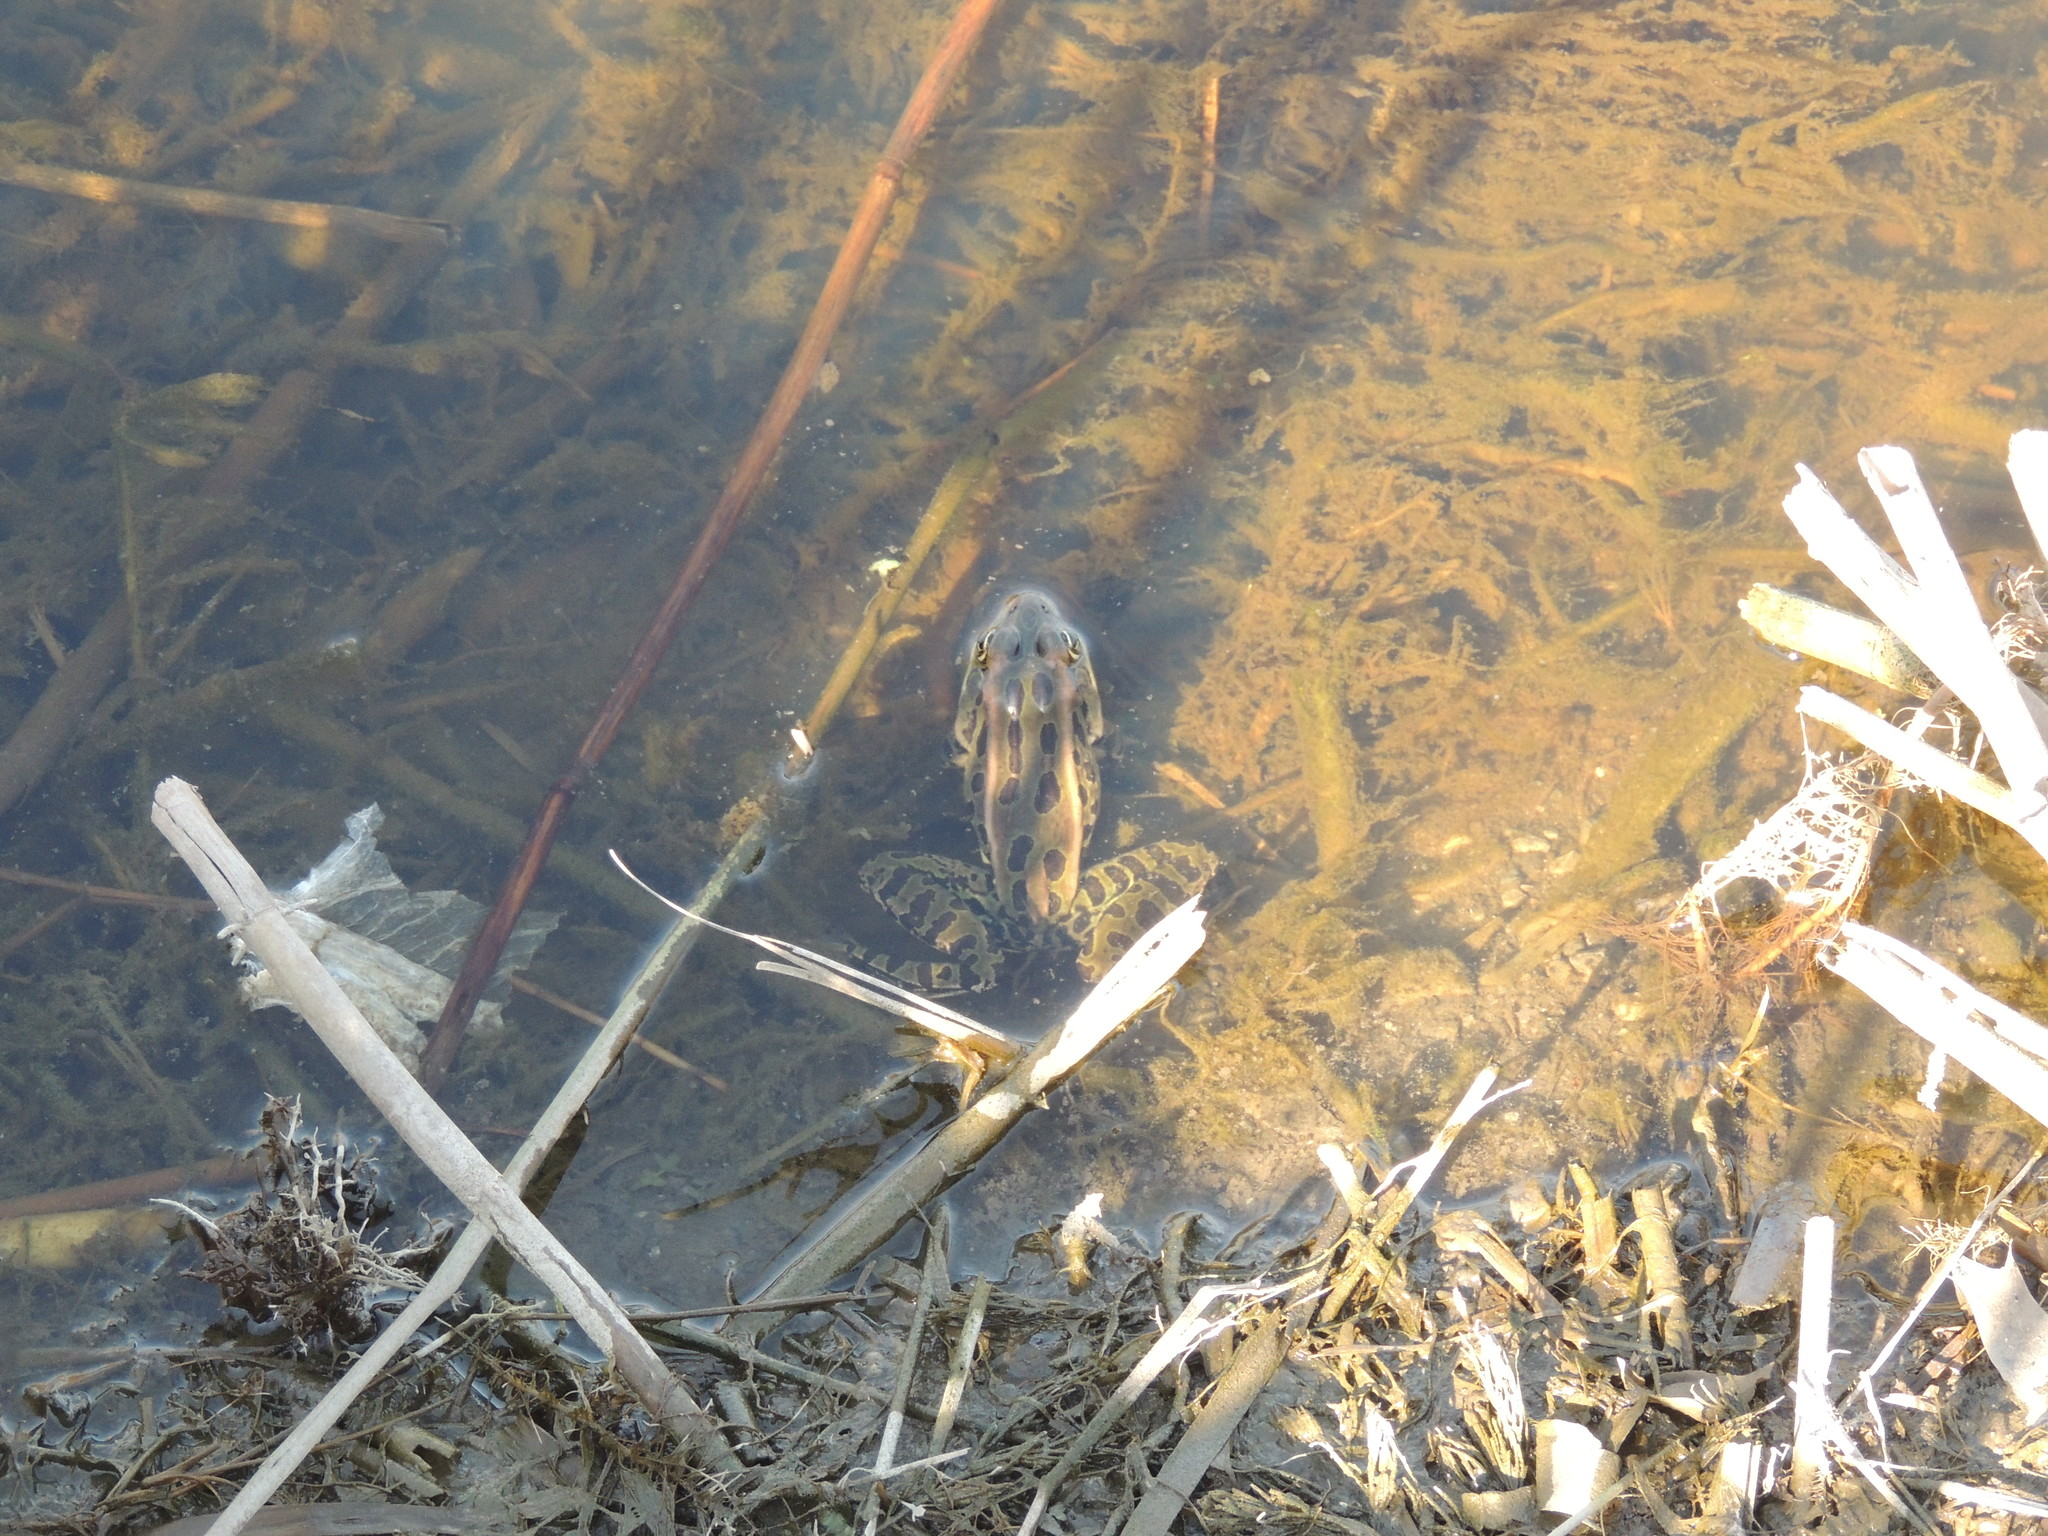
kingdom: Animalia
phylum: Chordata
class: Amphibia
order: Anura
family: Ranidae
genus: Lithobates
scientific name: Lithobates pipiens
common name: Northern leopard frog
